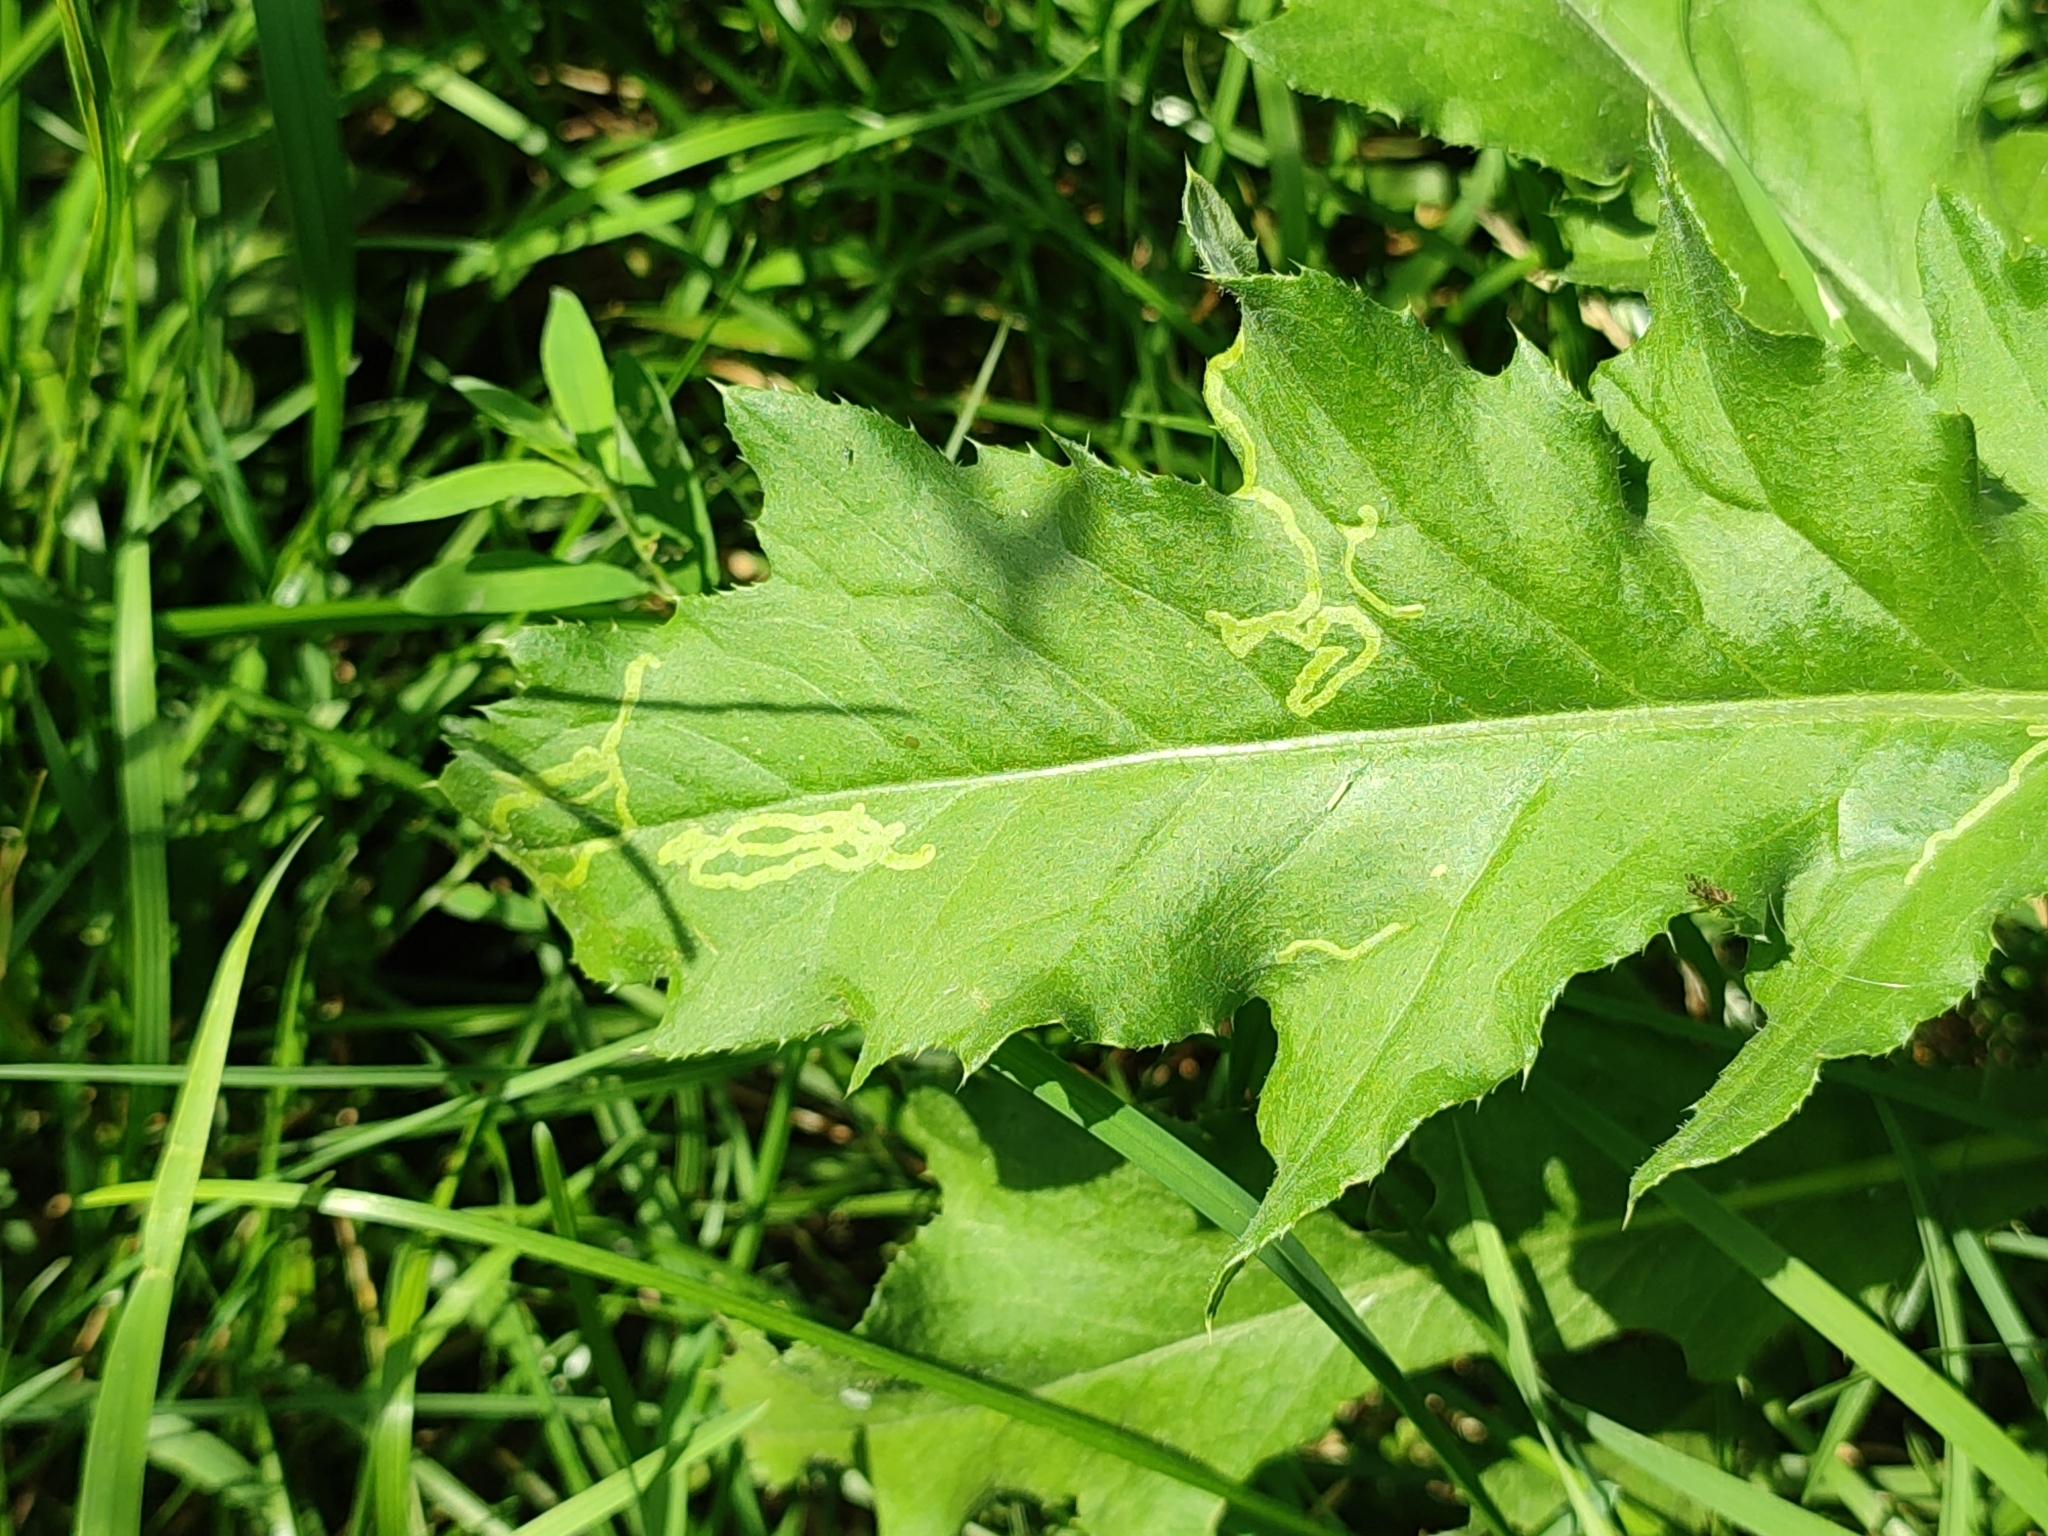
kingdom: Animalia
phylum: Arthropoda
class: Insecta
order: Diptera
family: Agromyzidae
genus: Phytomyza
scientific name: Phytomyza spinaciae
